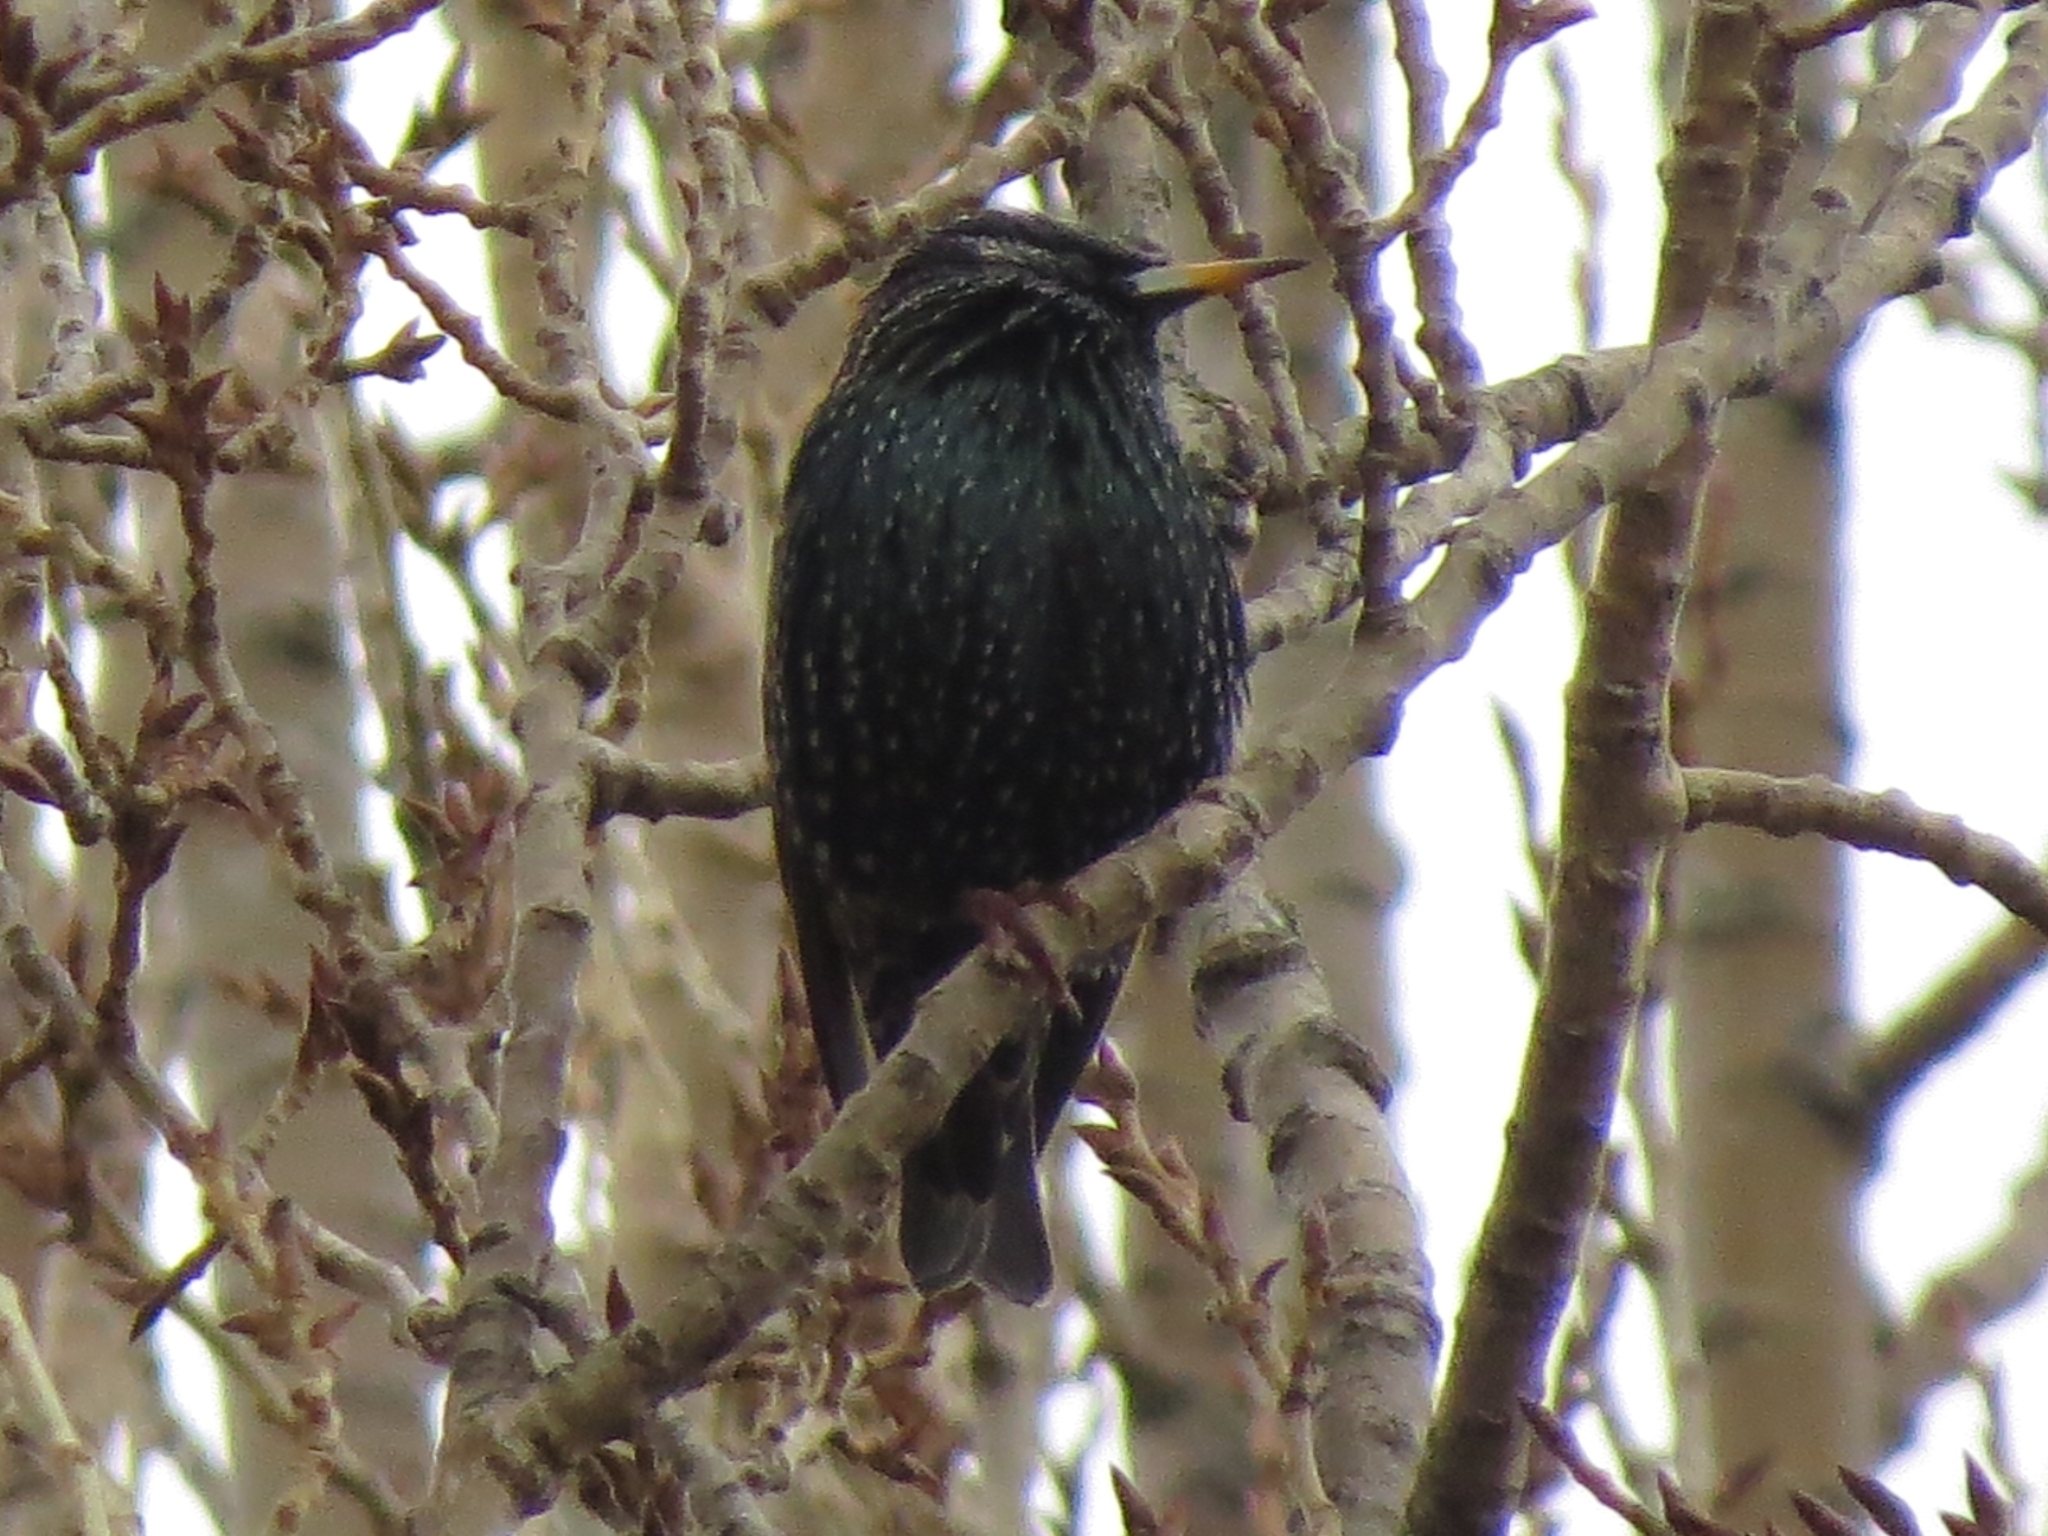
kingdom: Animalia
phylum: Chordata
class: Aves
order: Passeriformes
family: Sturnidae
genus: Sturnus
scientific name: Sturnus vulgaris
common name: Common starling
